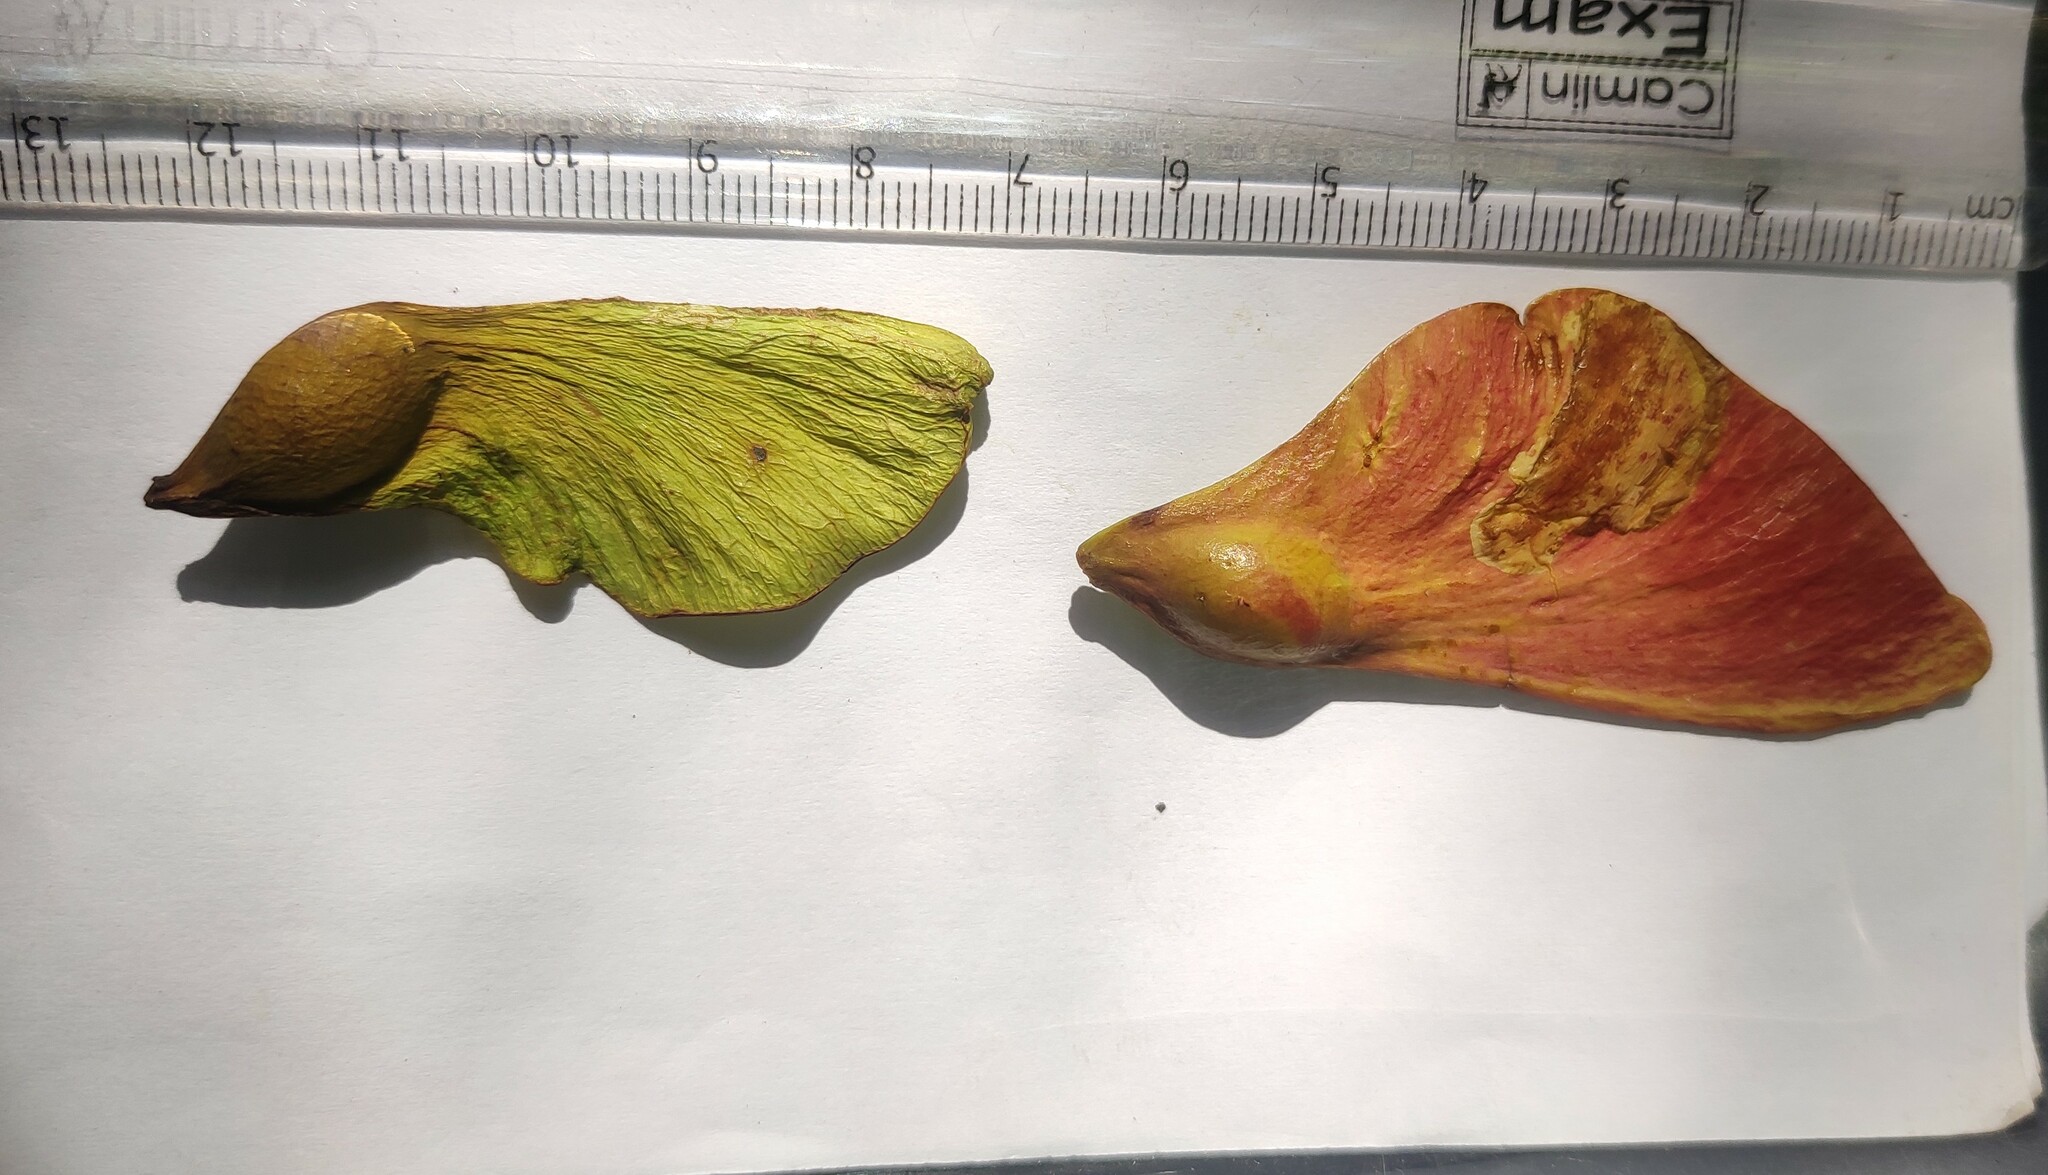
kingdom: Plantae
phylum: Tracheophyta
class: Magnoliopsida
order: Malvales
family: Malvaceae
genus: Heritiera
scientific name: Heritiera papilio
